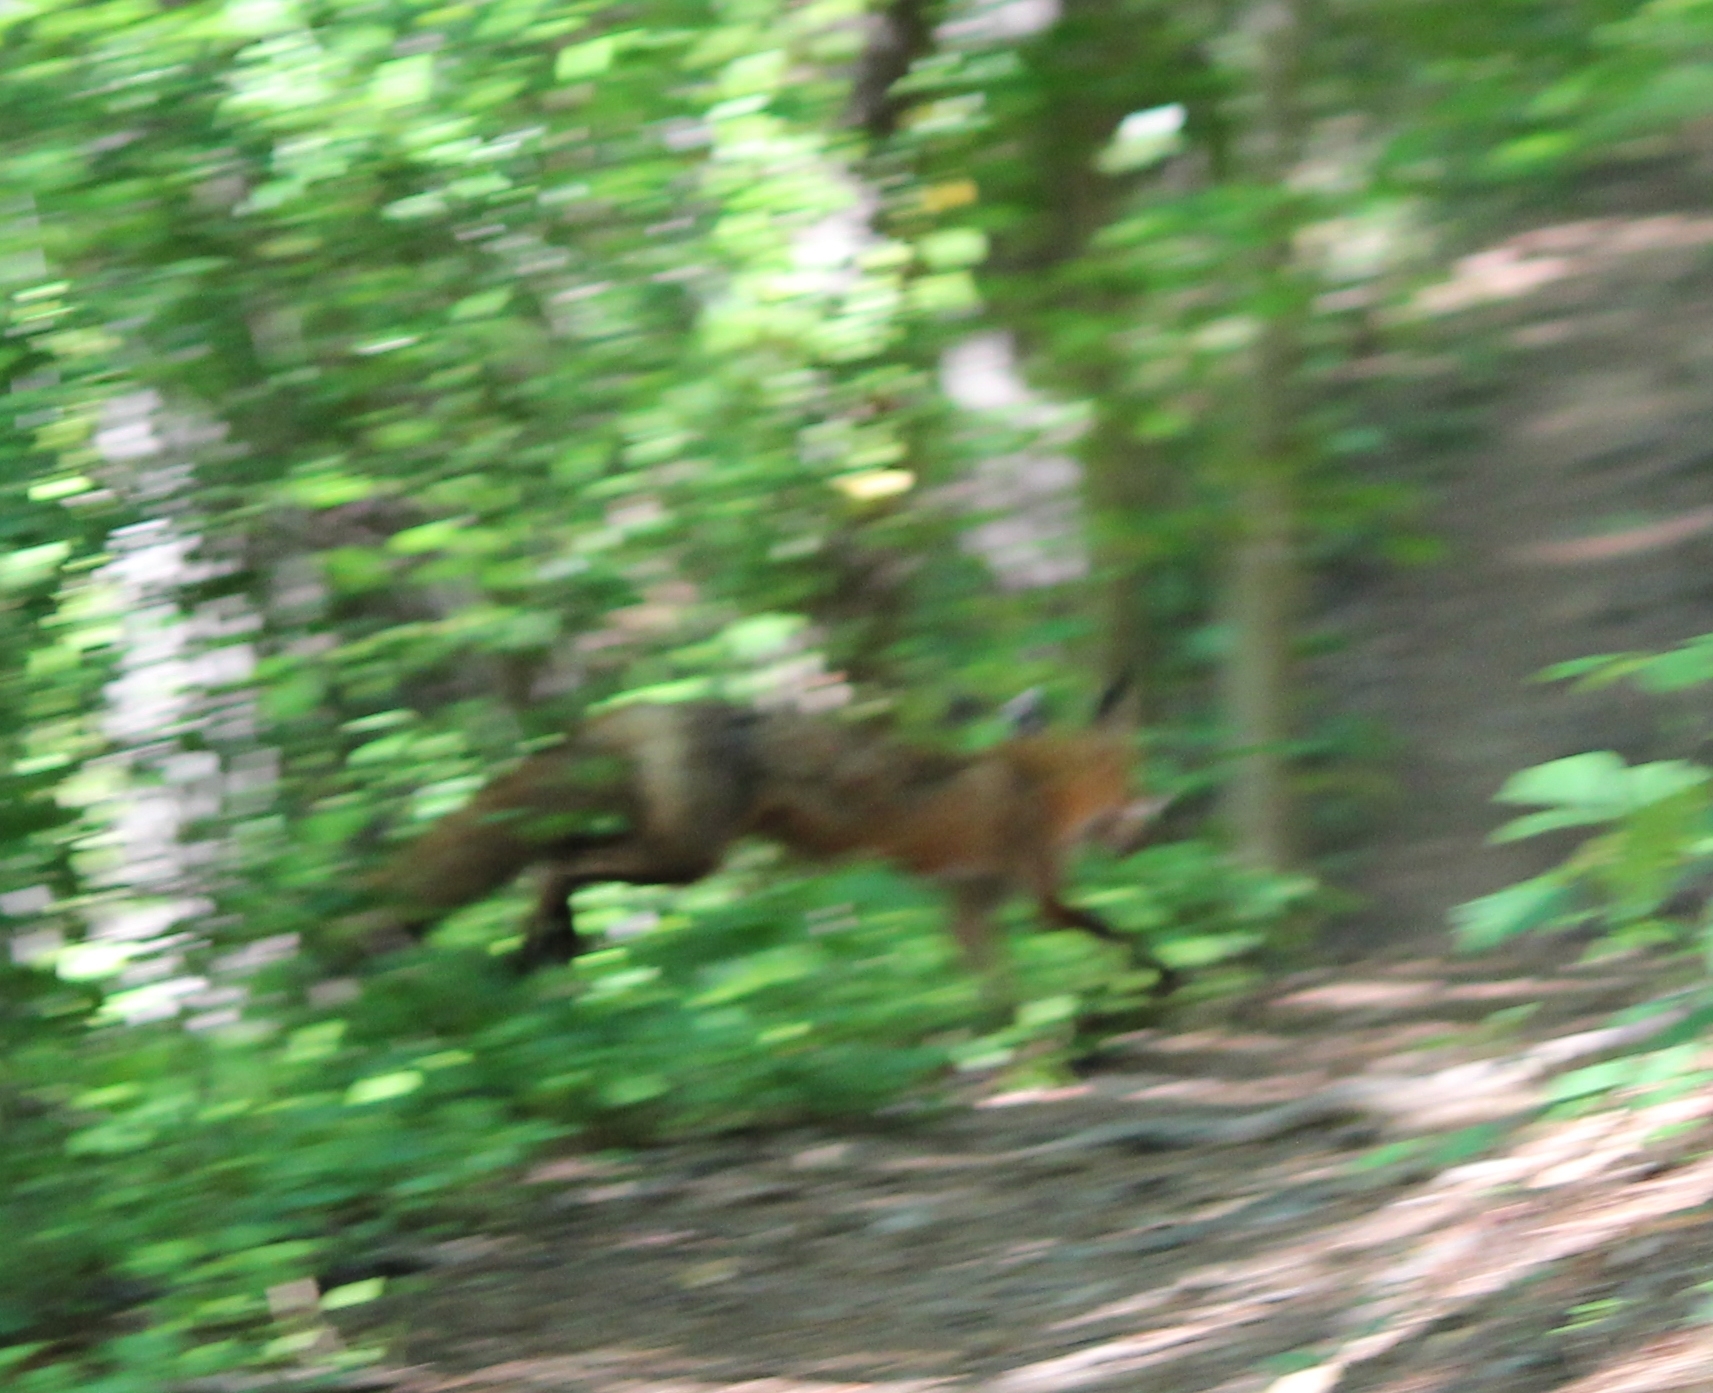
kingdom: Animalia
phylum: Chordata
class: Mammalia
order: Carnivora
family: Canidae
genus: Vulpes
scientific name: Vulpes vulpes
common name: Red fox
